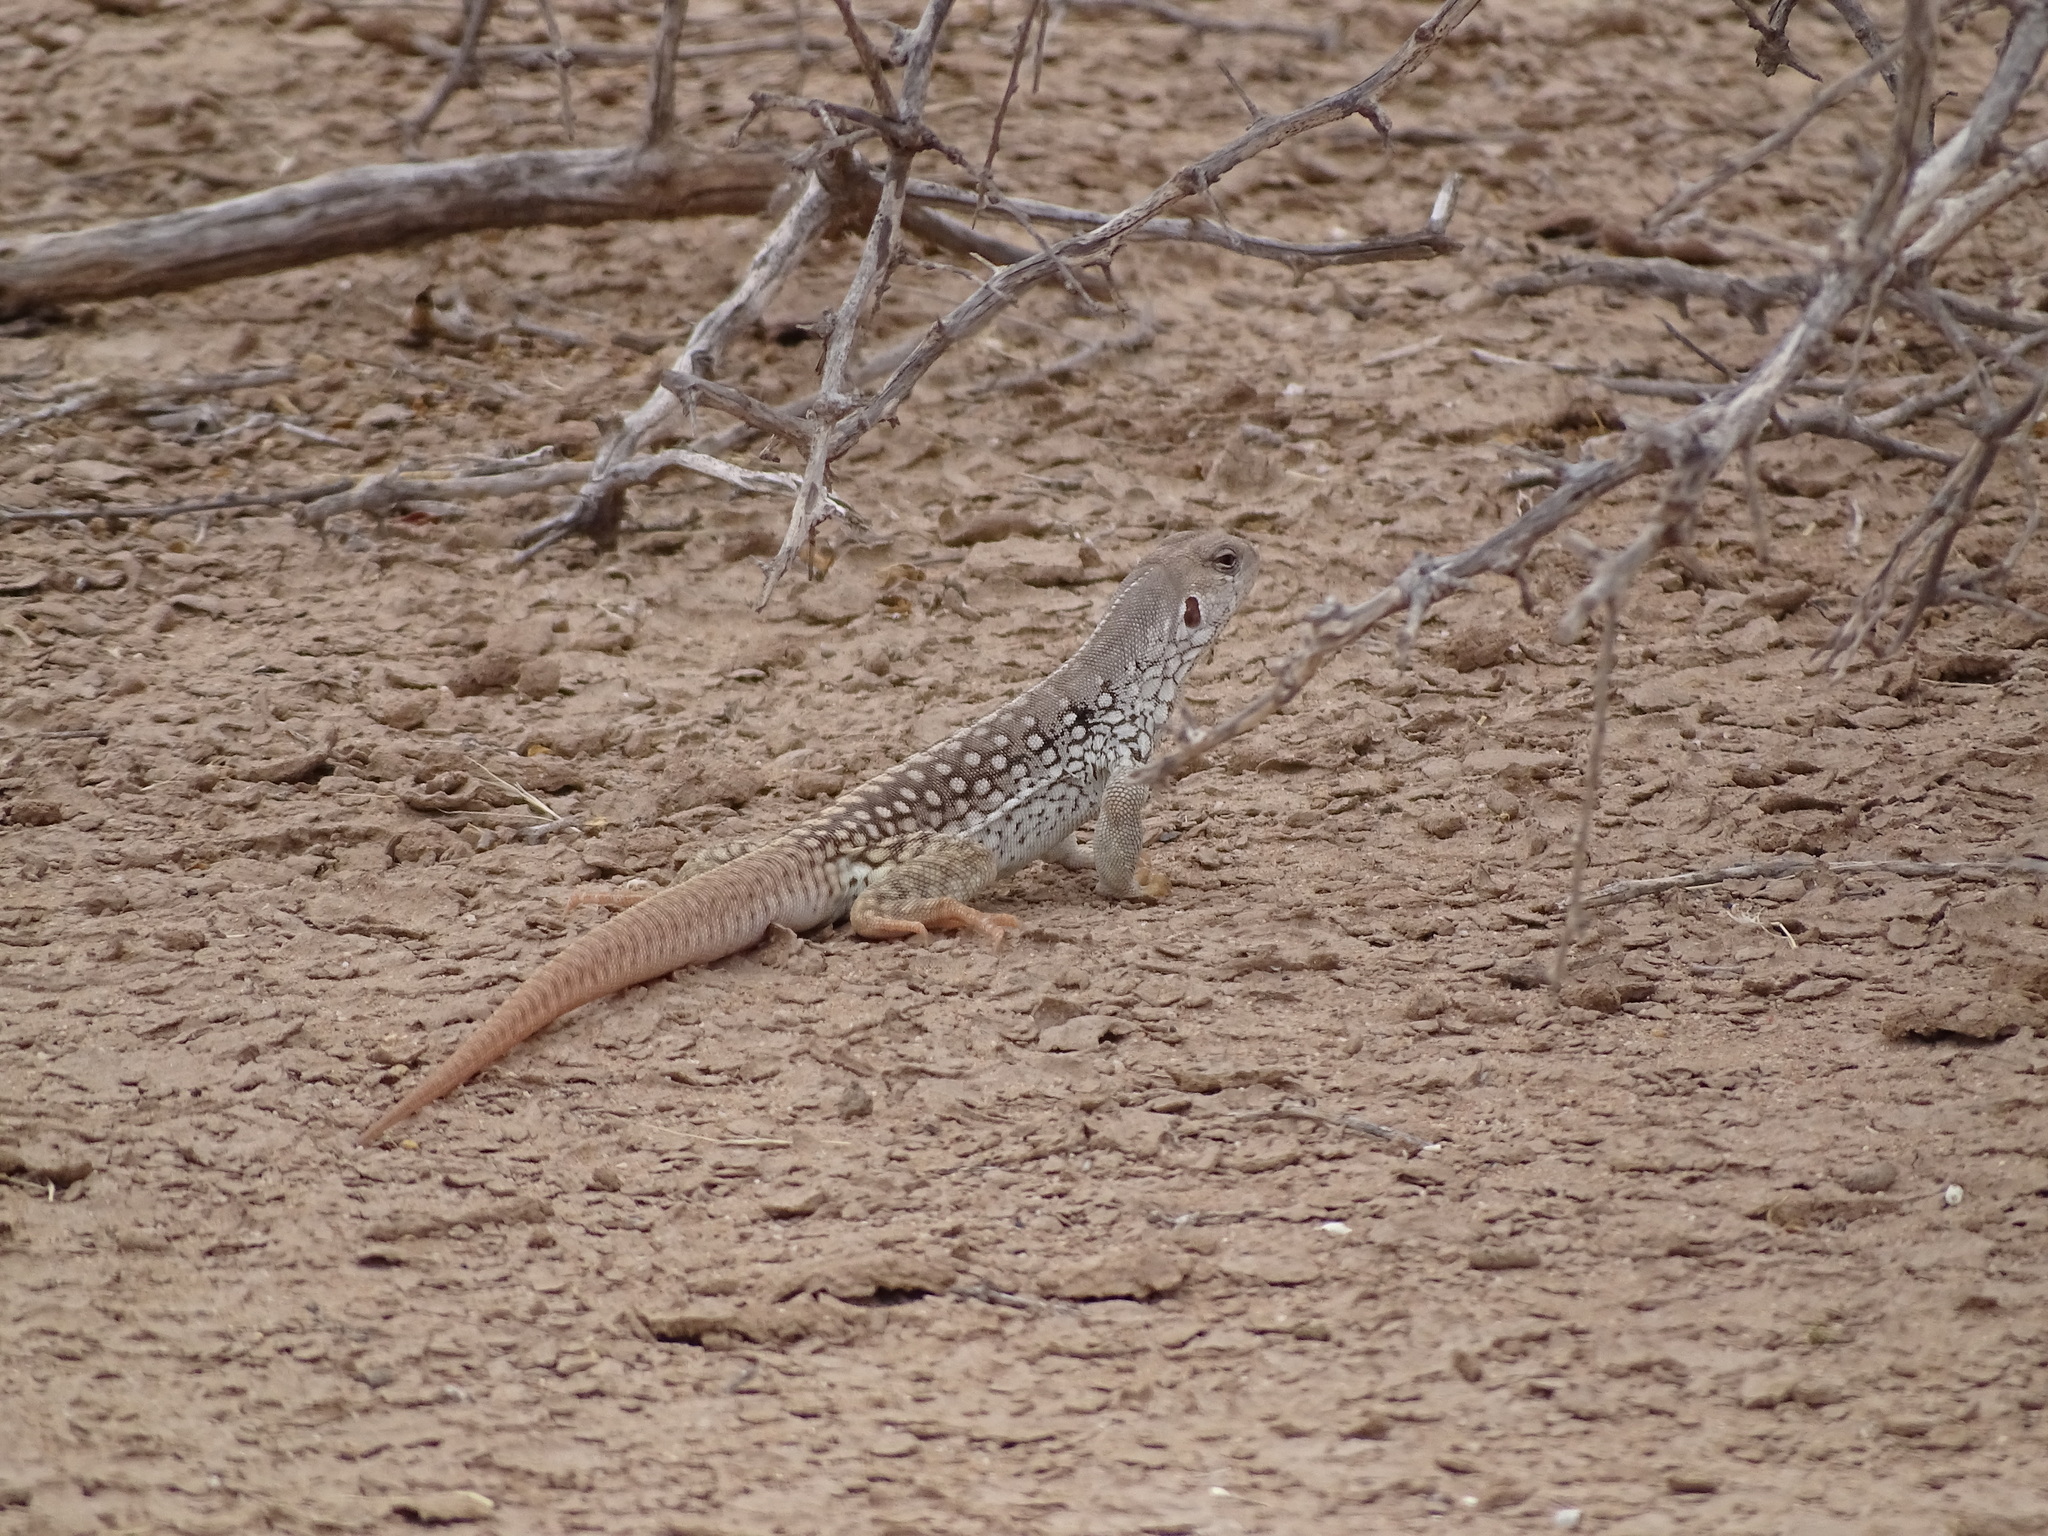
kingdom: Animalia
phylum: Chordata
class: Squamata
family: Iguanidae
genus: Dipsosaurus
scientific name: Dipsosaurus dorsalis
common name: Desert iguana
